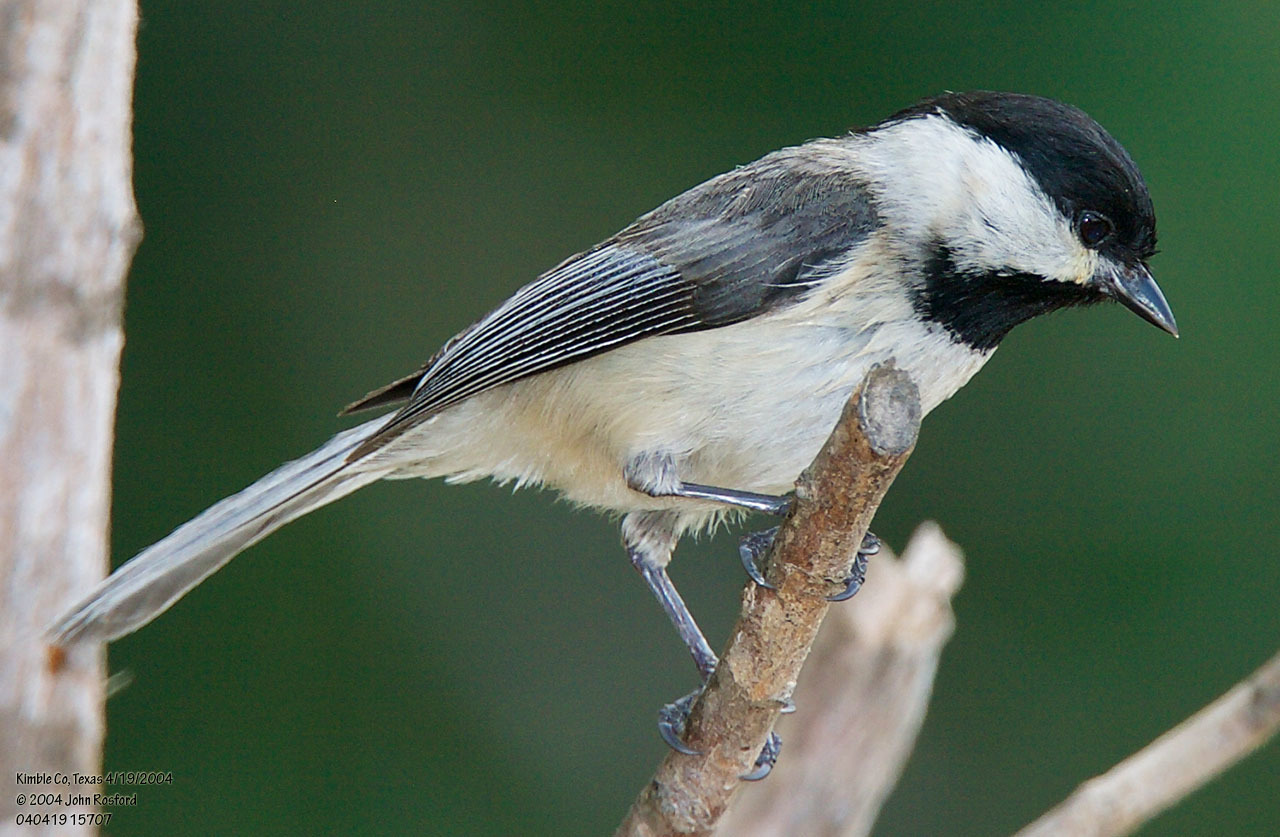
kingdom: Animalia
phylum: Chordata
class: Aves
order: Passeriformes
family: Paridae
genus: Poecile
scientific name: Poecile carolinensis
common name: Carolina chickadee
